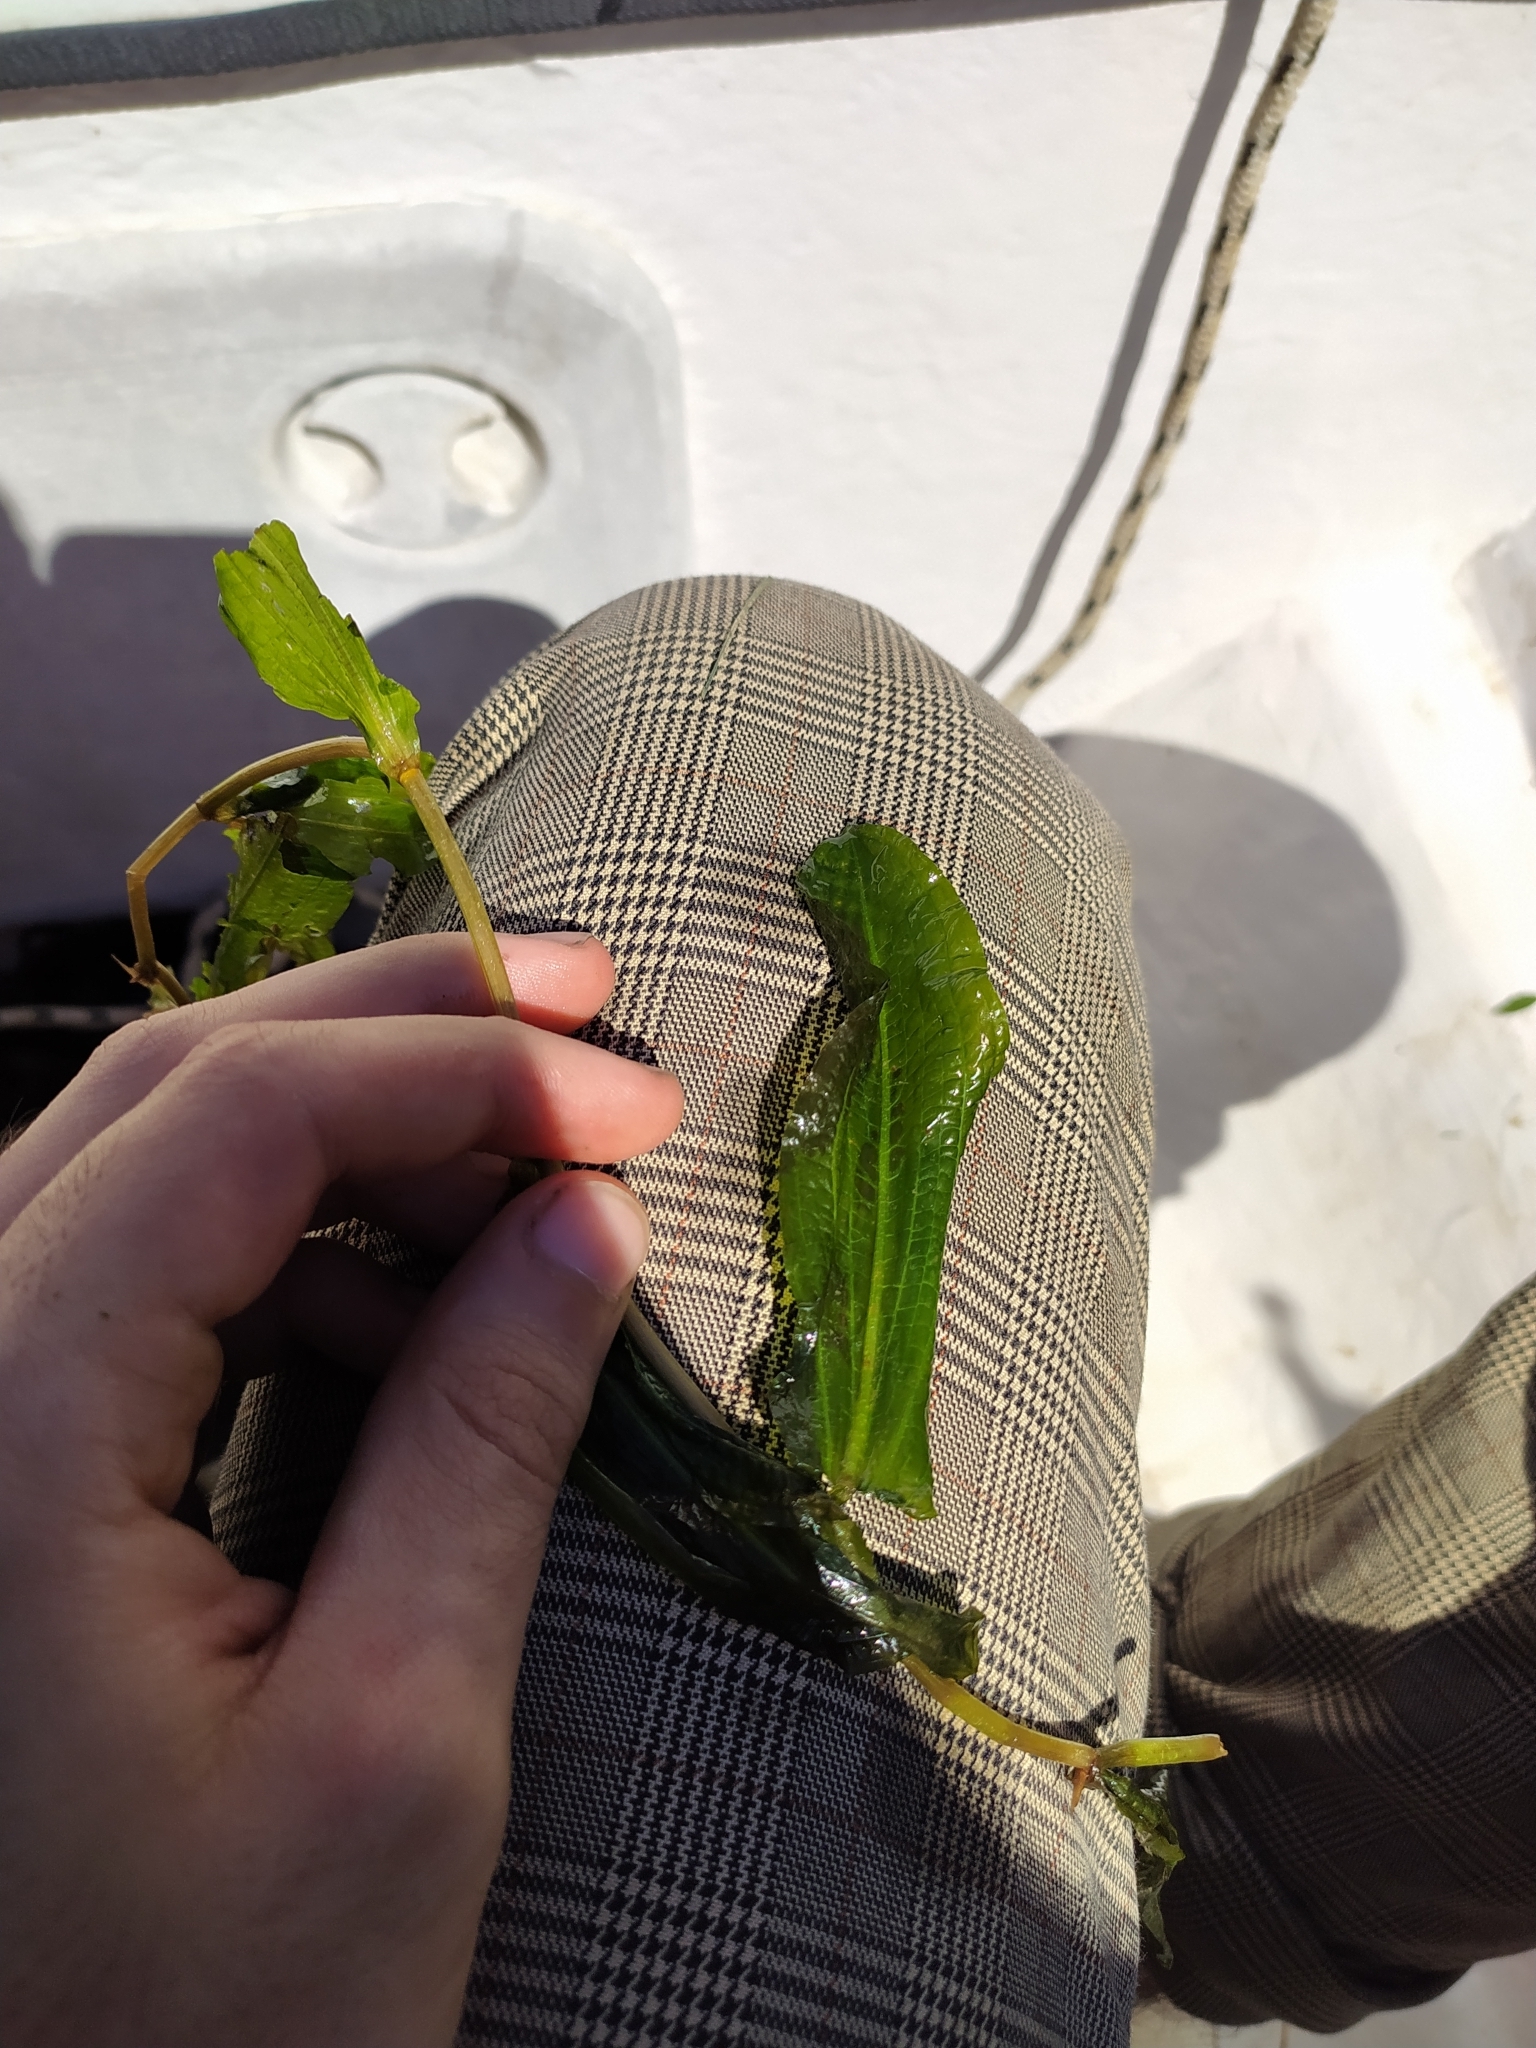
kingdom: Plantae
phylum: Tracheophyta
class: Liliopsida
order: Alismatales
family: Potamogetonaceae
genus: Potamogeton
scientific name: Potamogeton lucens
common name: Shining pondweed
